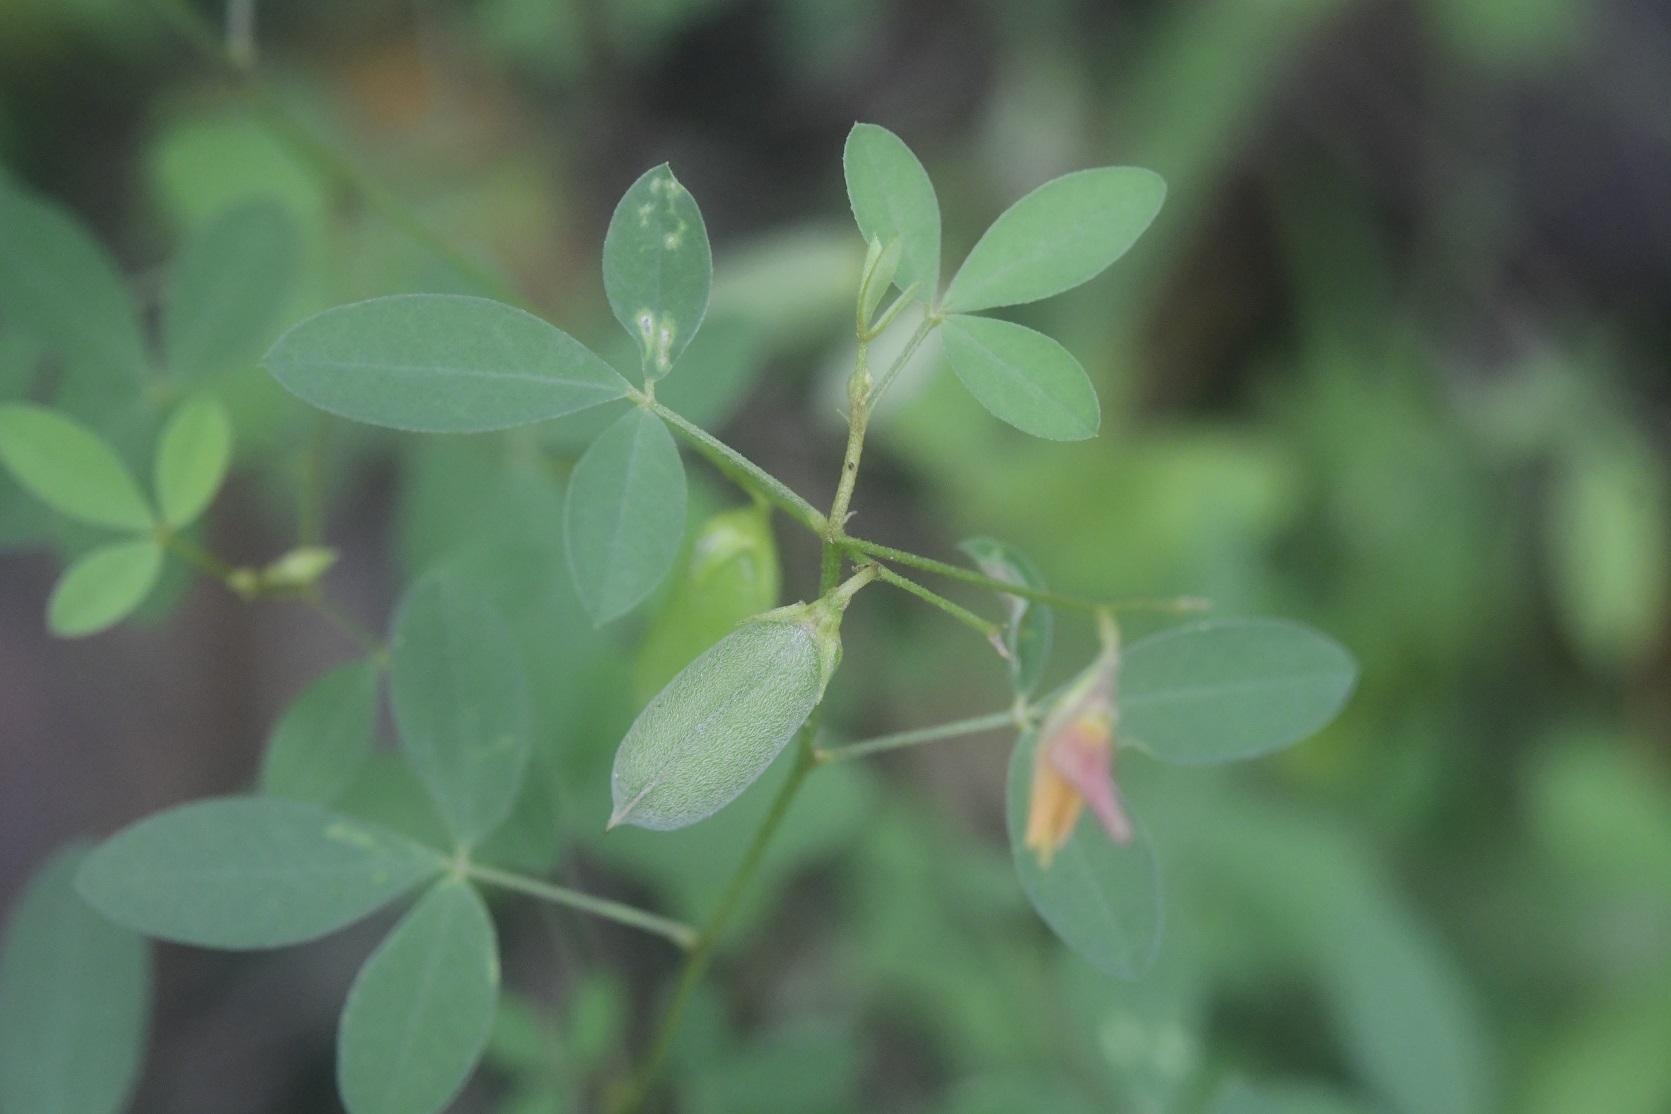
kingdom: Plantae
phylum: Tracheophyta
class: Magnoliopsida
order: Fabales
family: Fabaceae
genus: Crotalaria
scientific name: Crotalaria pumila
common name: Low rattlebox
